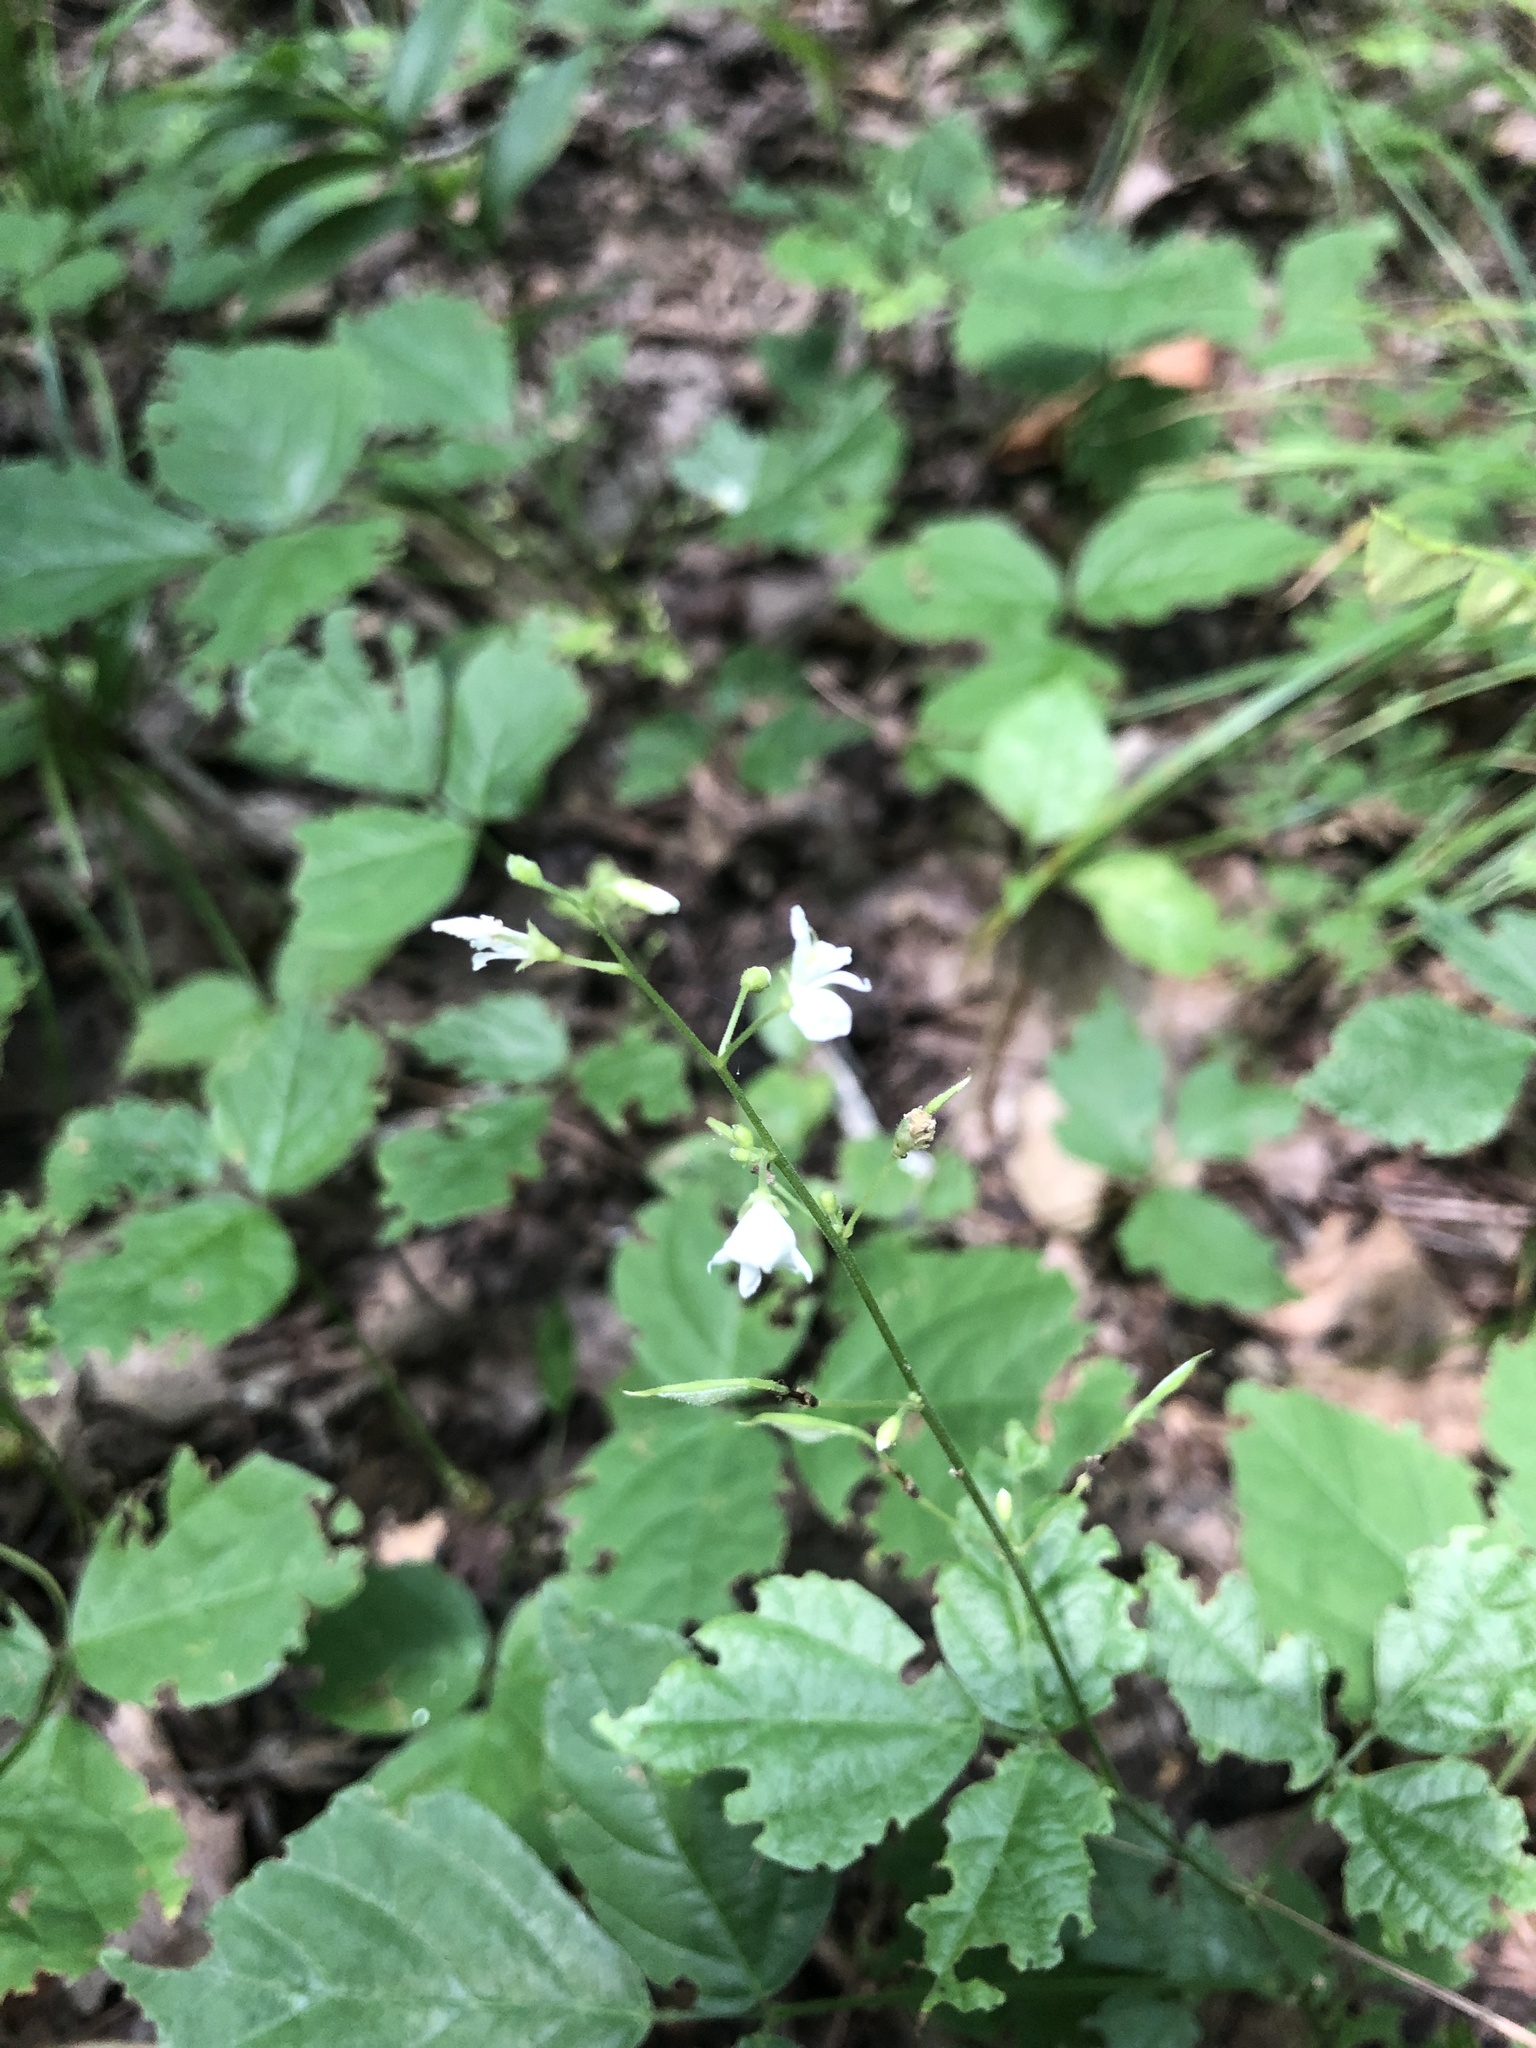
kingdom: Plantae
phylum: Tracheophyta
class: Magnoliopsida
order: Fabales
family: Fabaceae
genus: Hylodesmum
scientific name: Hylodesmum pauciflorum
